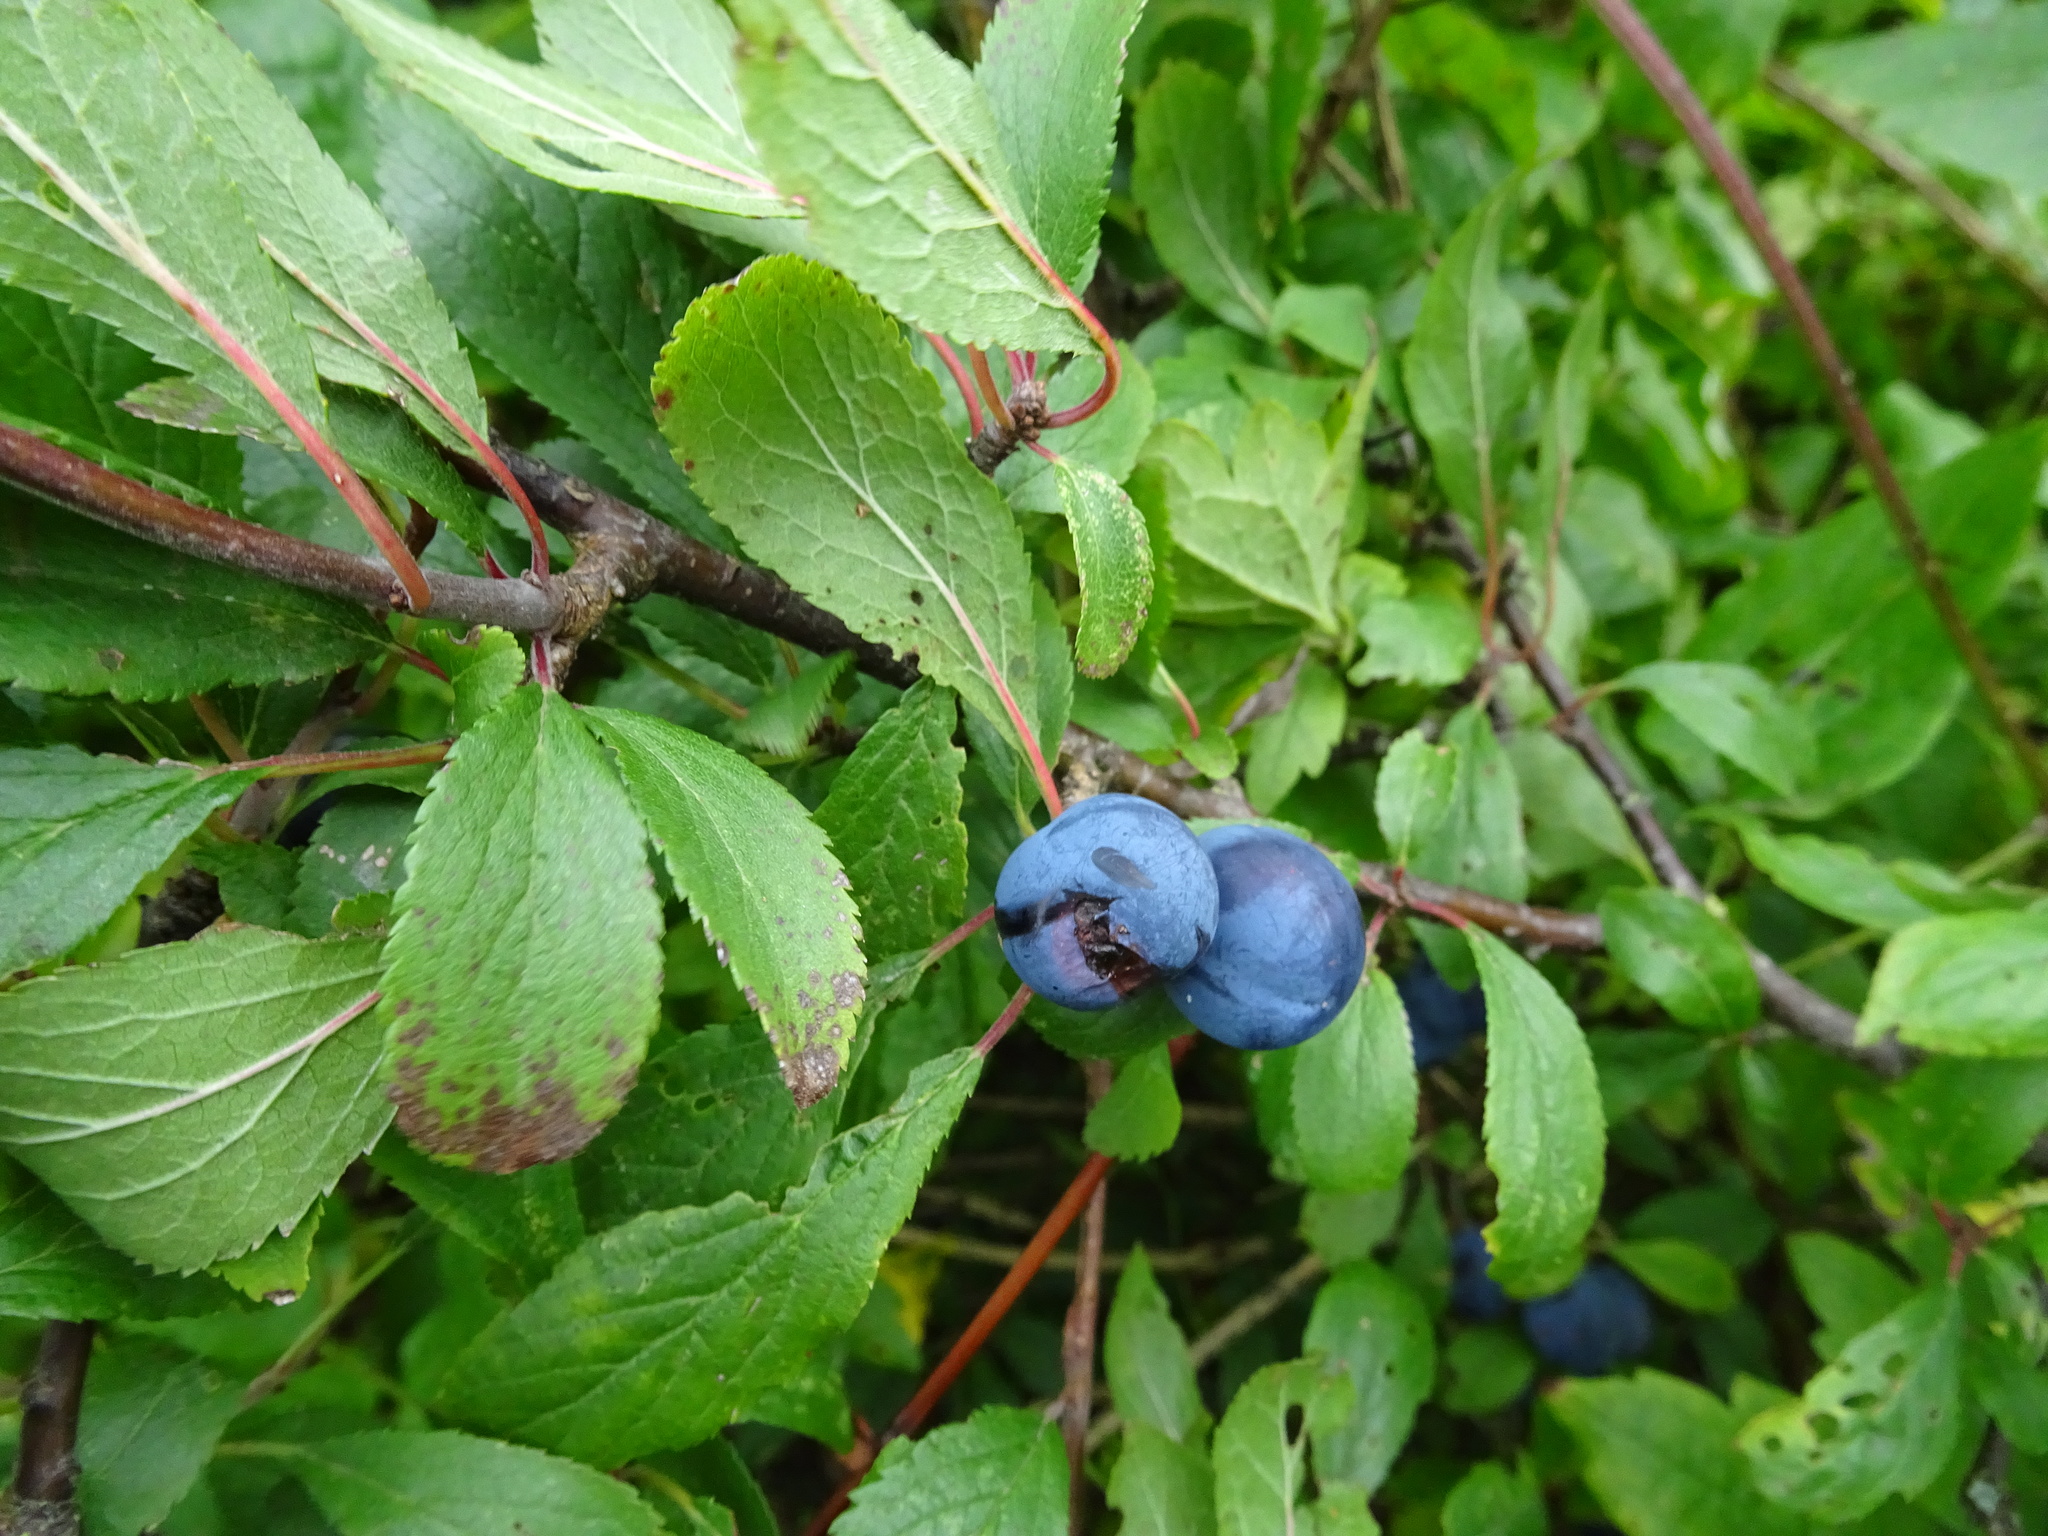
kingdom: Plantae
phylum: Tracheophyta
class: Magnoliopsida
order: Rosales
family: Rosaceae
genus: Prunus
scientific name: Prunus spinosa
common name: Blackthorn
